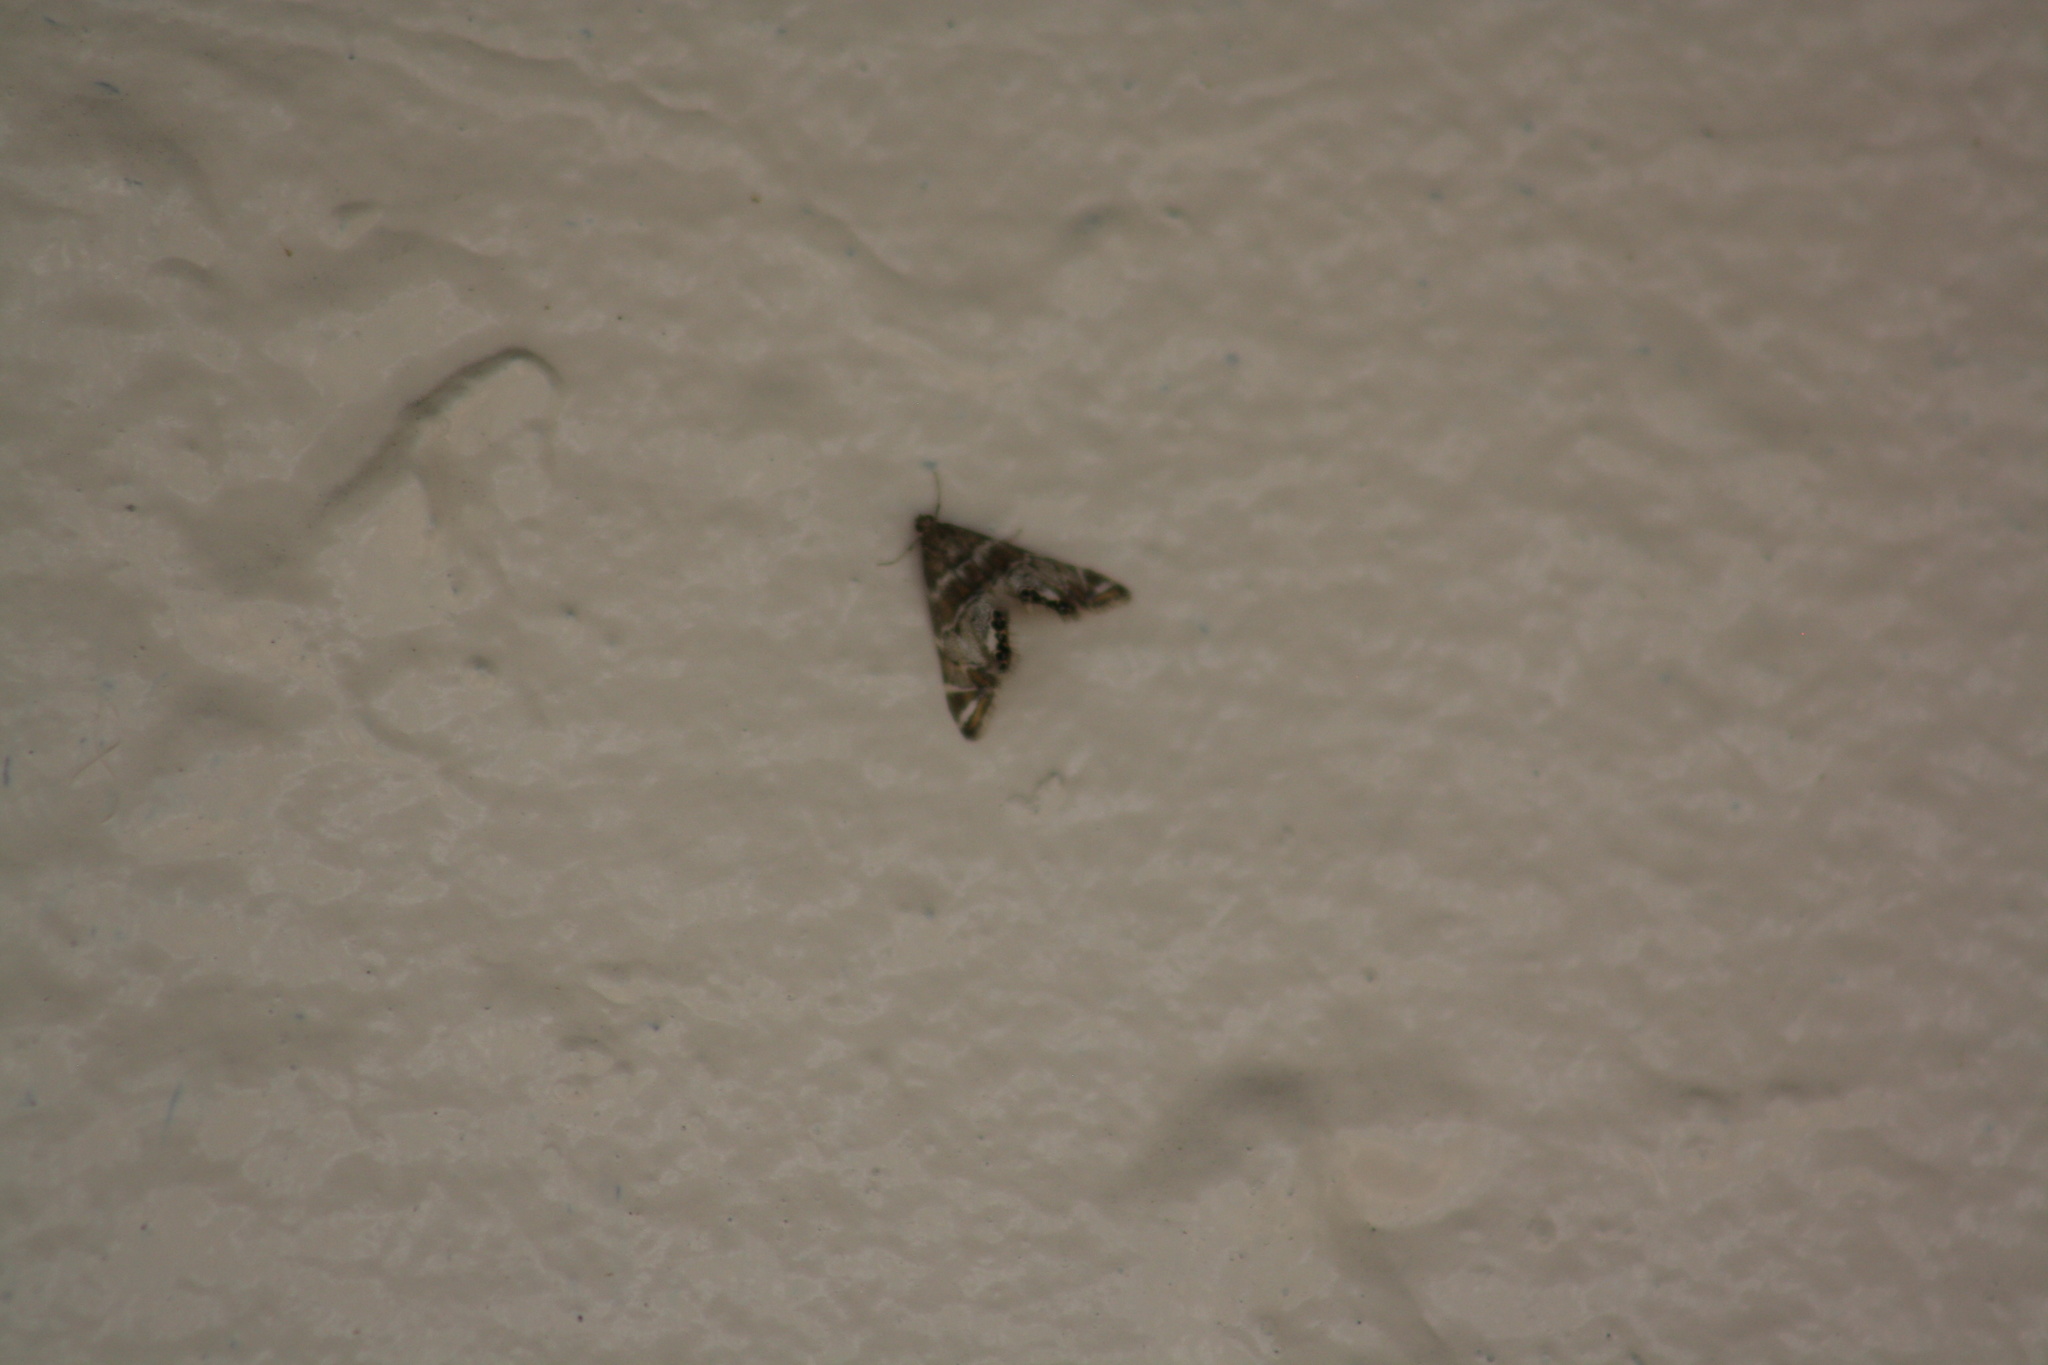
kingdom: Animalia
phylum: Arthropoda
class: Insecta
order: Lepidoptera
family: Crambidae
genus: Petrophila
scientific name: Petrophila confusalis
